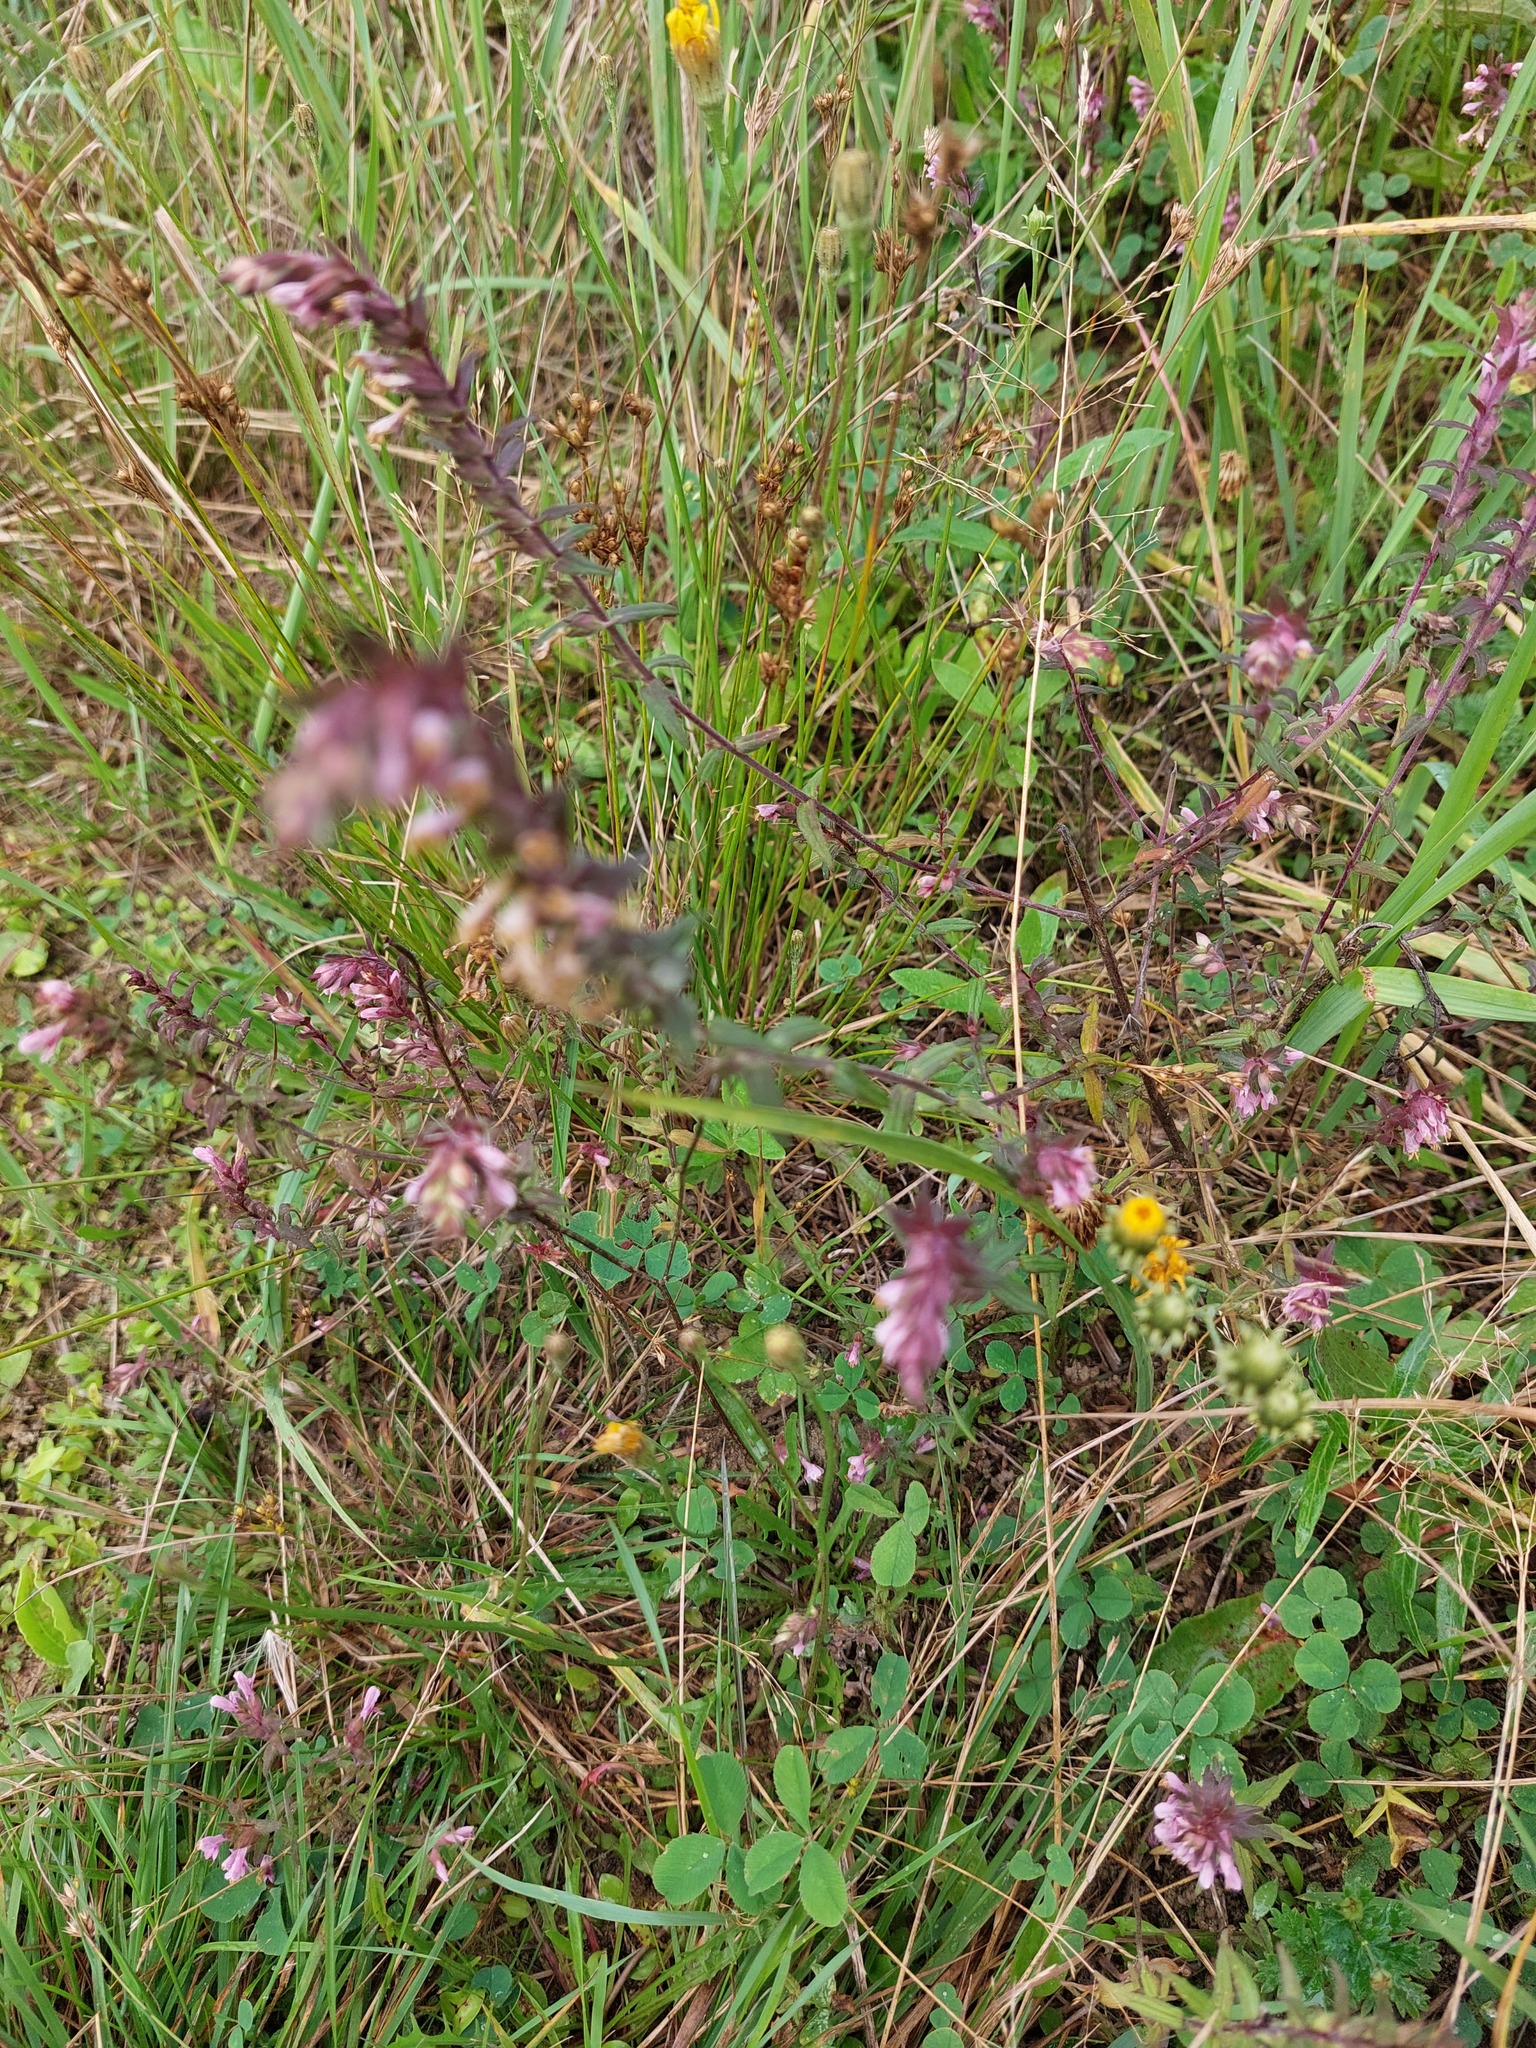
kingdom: Plantae
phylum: Tracheophyta
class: Magnoliopsida
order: Lamiales
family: Orobanchaceae
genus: Odontites
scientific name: Odontites vulgaris
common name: Broomrape
